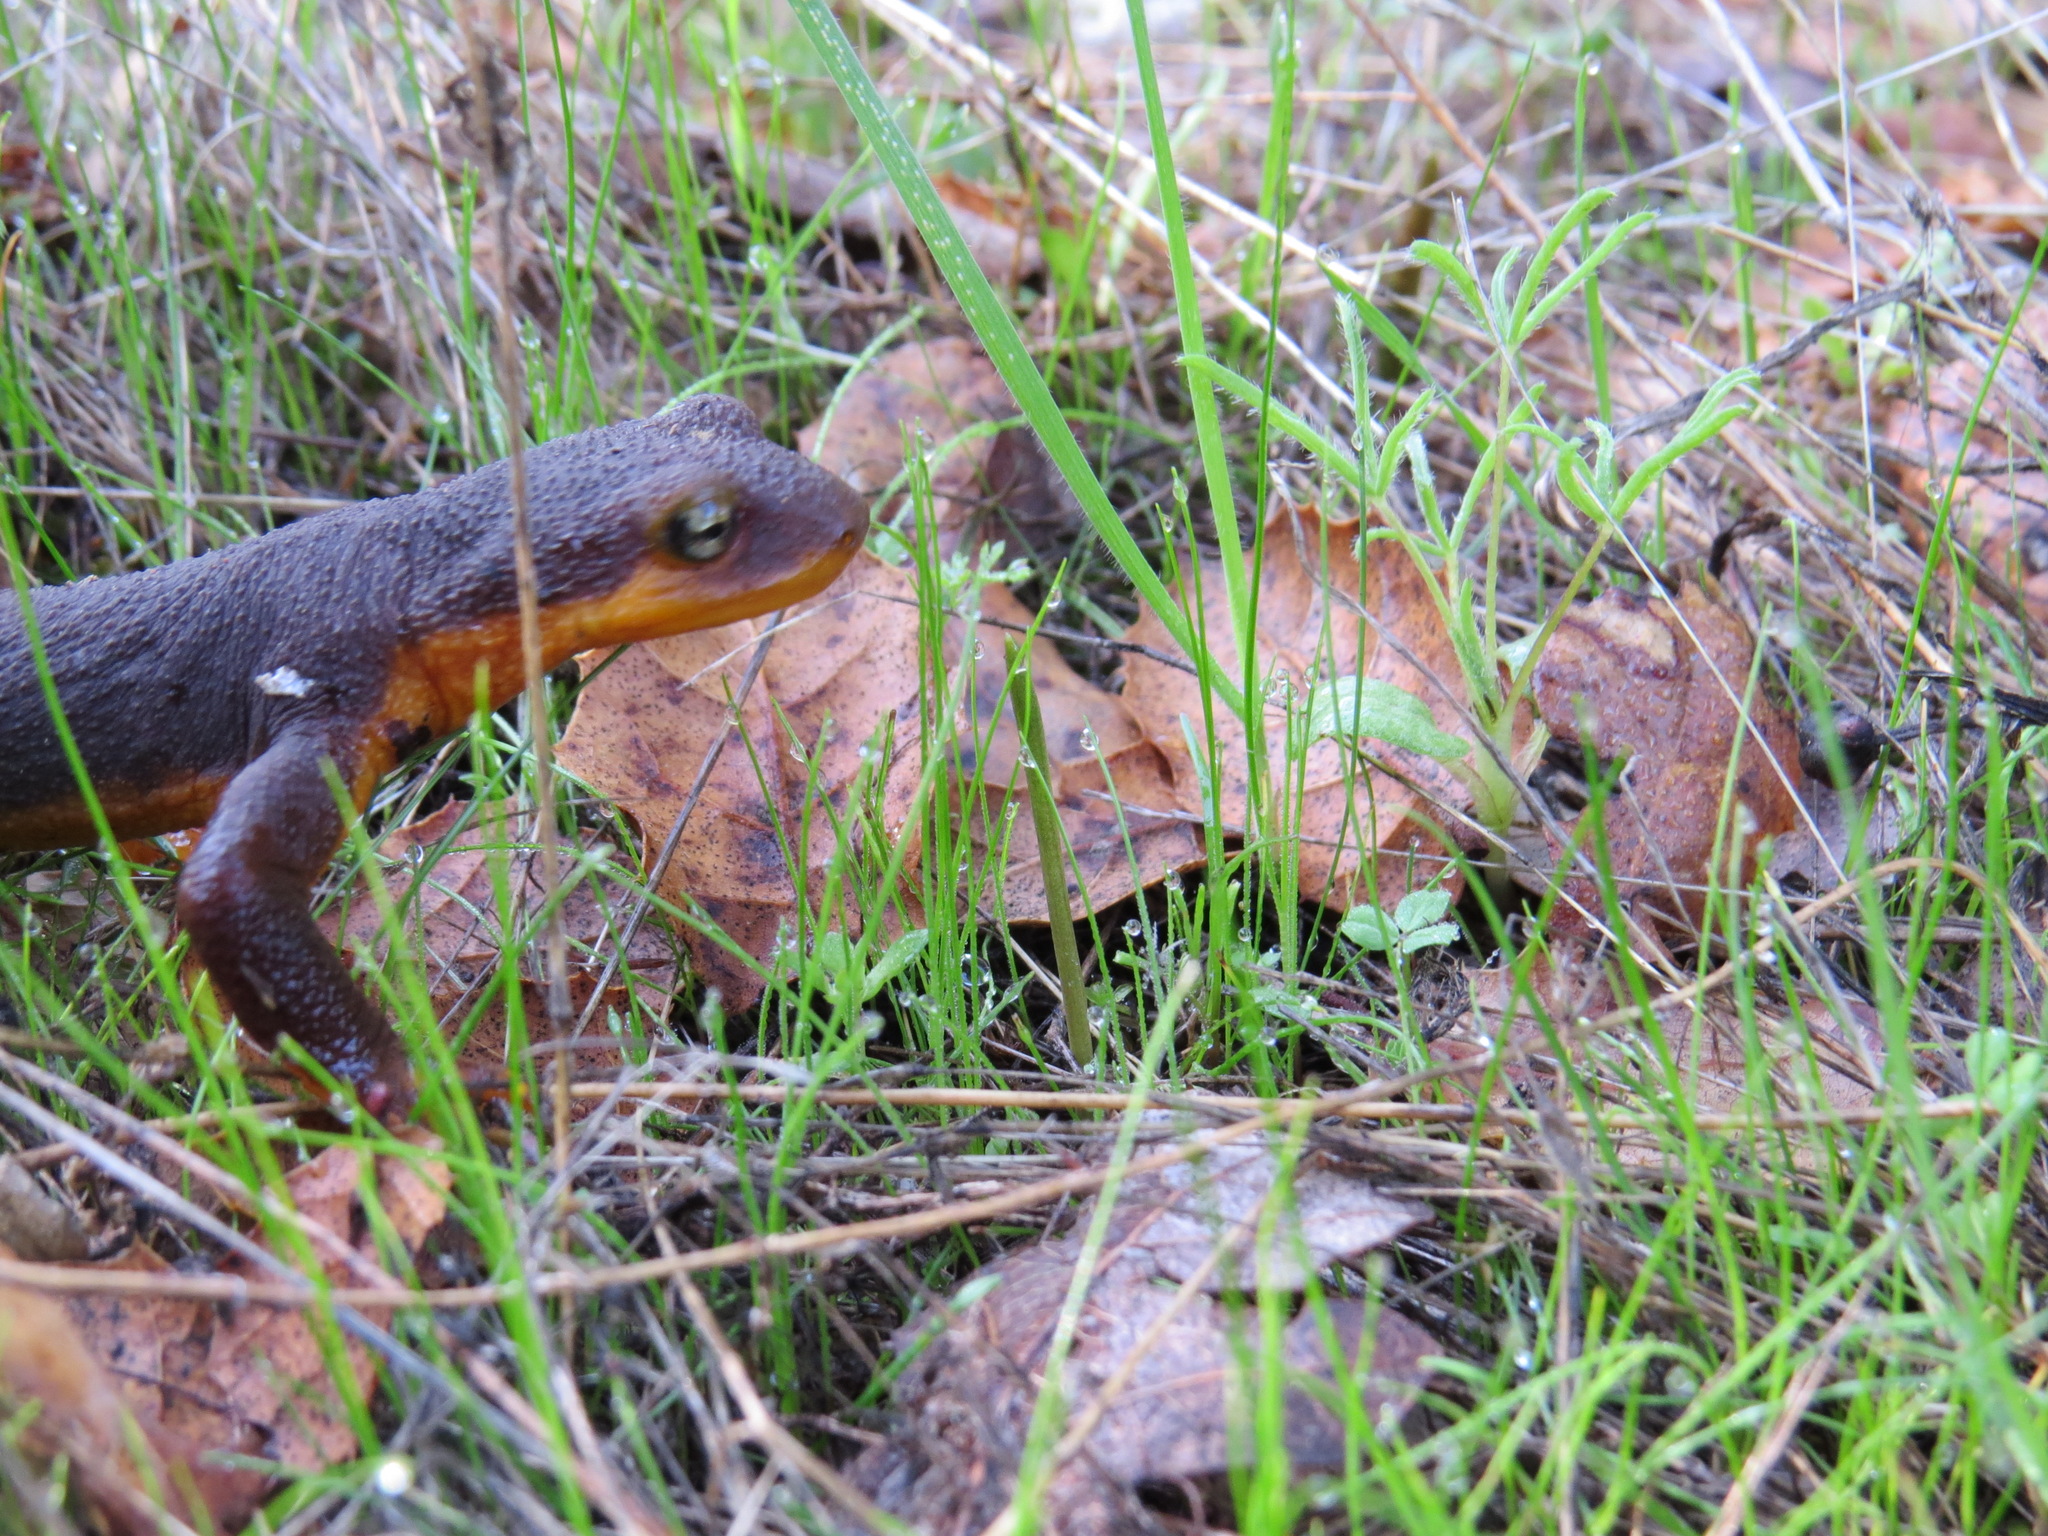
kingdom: Animalia
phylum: Chordata
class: Amphibia
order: Caudata
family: Salamandridae
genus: Taricha
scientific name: Taricha torosa
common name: California newt
